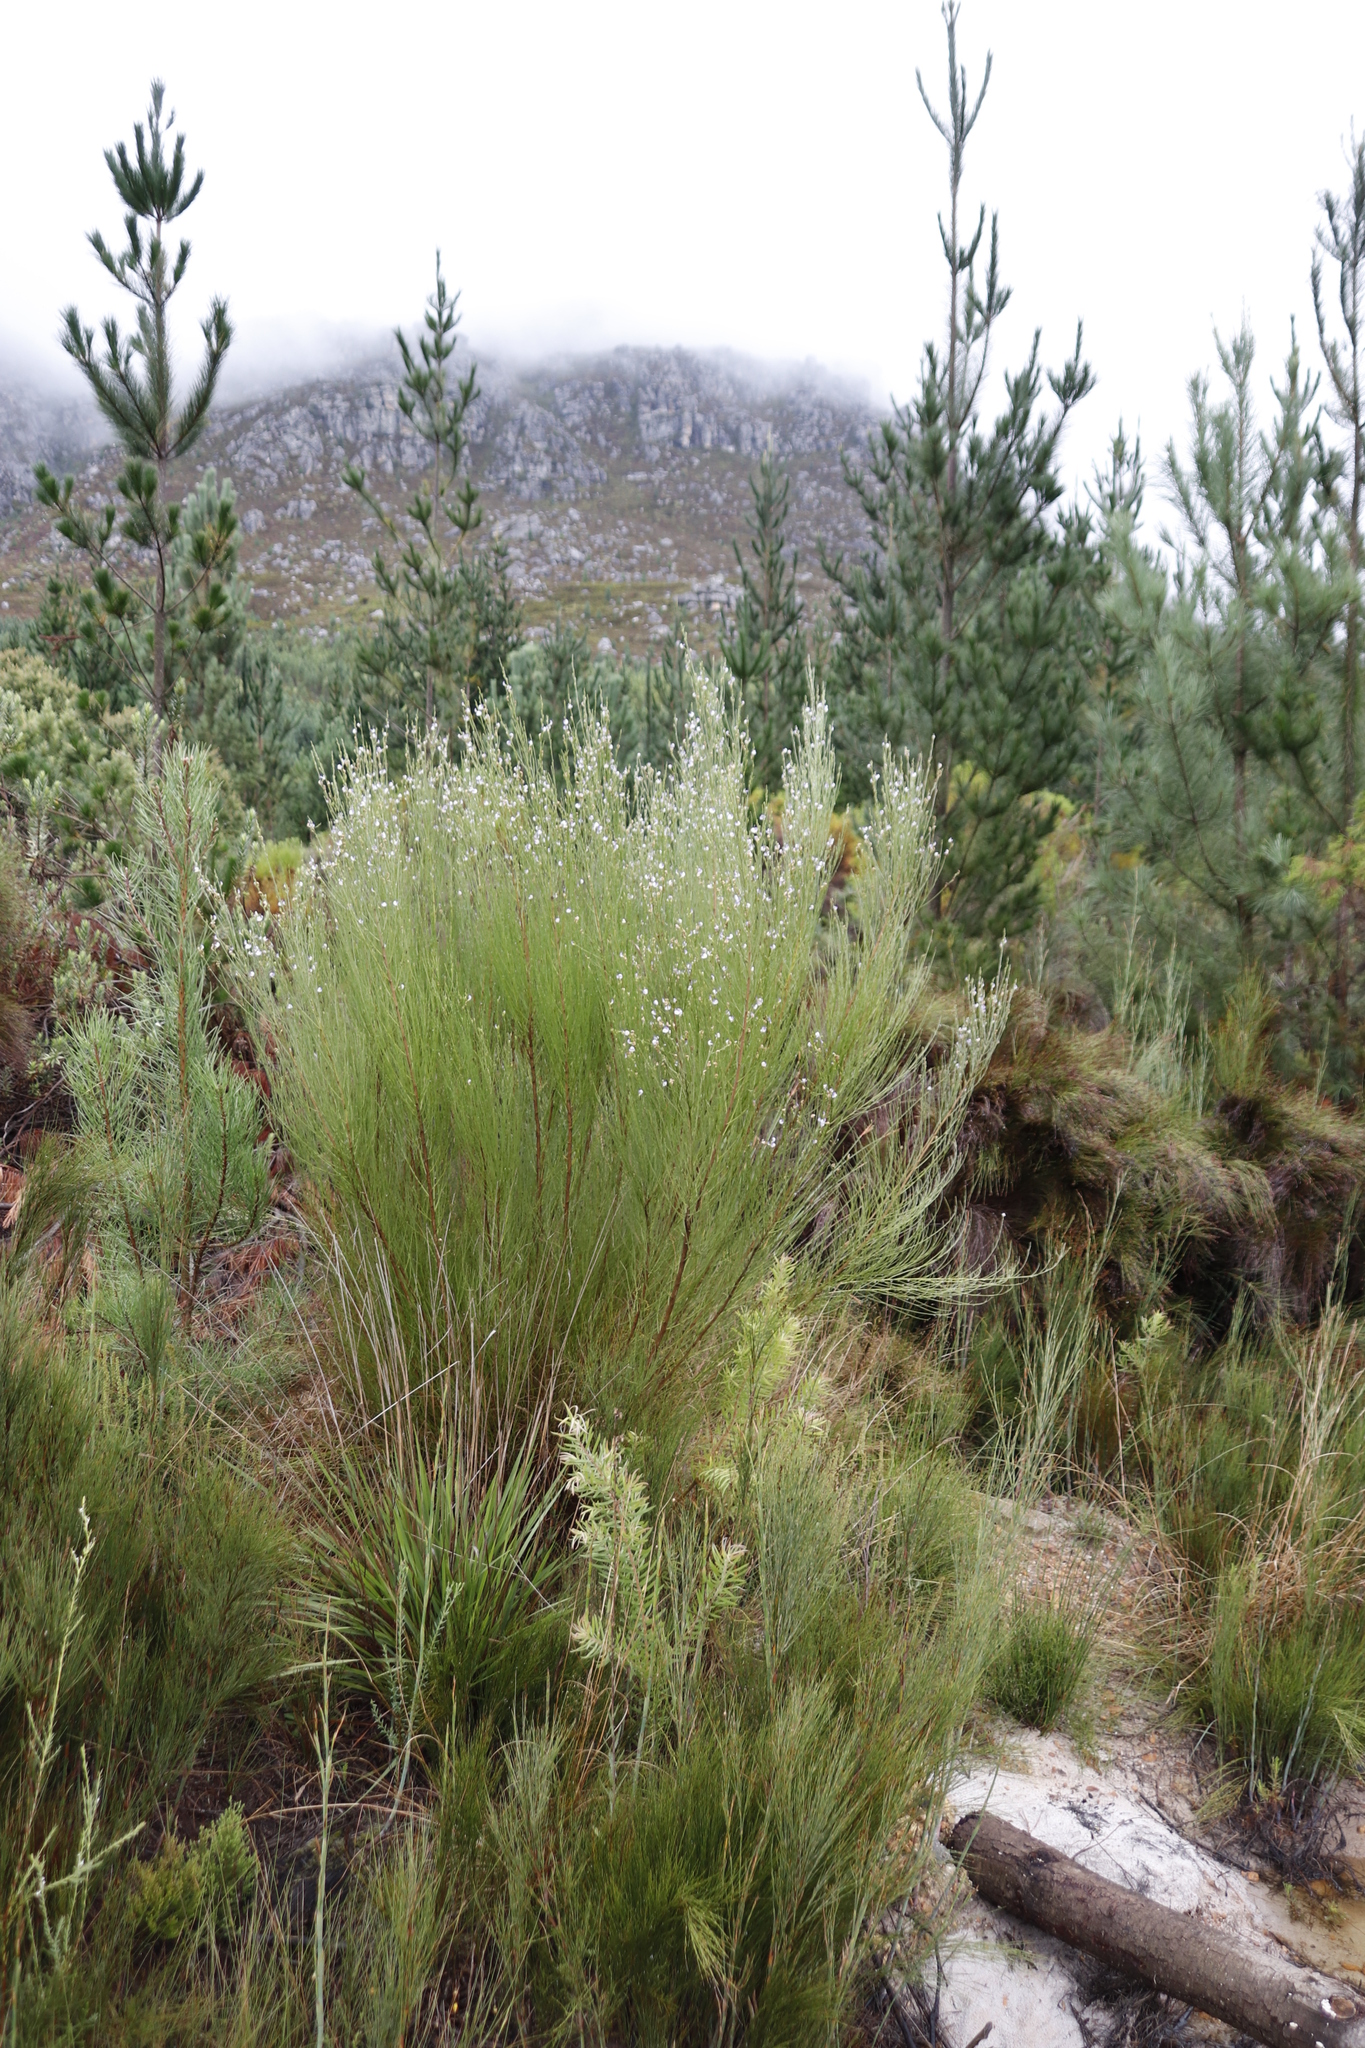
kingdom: Plantae
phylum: Tracheophyta
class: Magnoliopsida
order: Fabales
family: Fabaceae
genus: Psoralea
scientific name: Psoralea usitata
